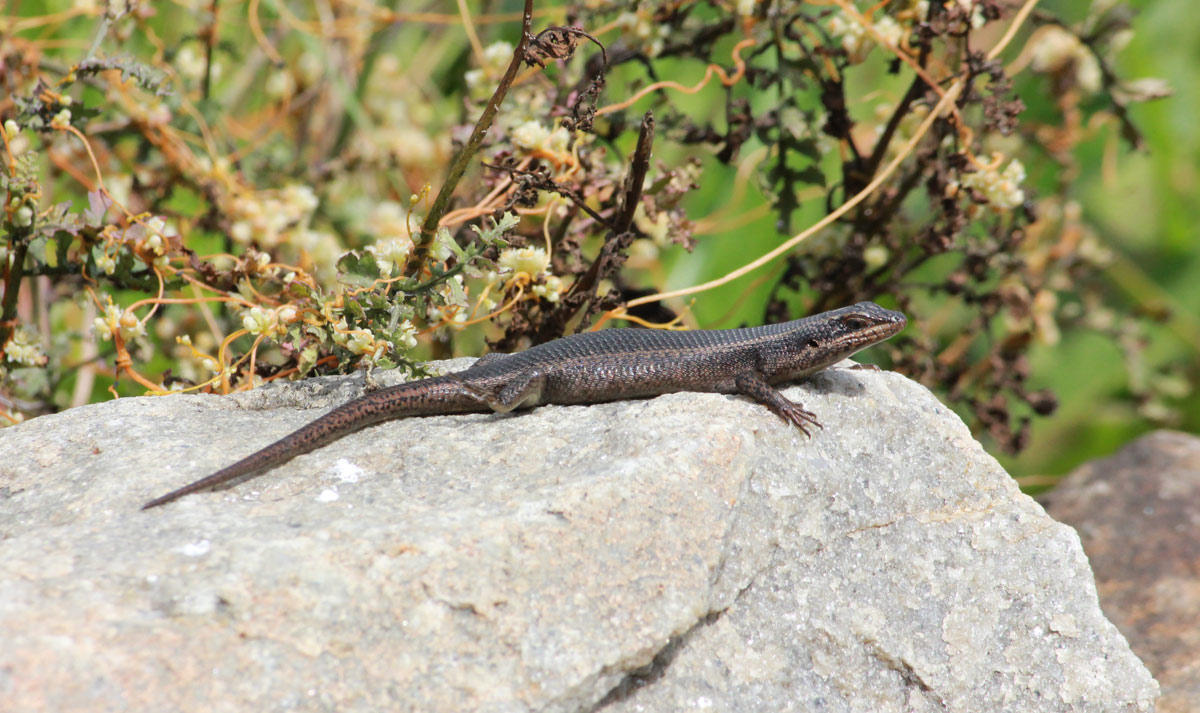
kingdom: Animalia
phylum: Chordata
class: Squamata
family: Scincidae
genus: Trachylepis
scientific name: Trachylepis punctatissima
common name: Montane speckled skink
